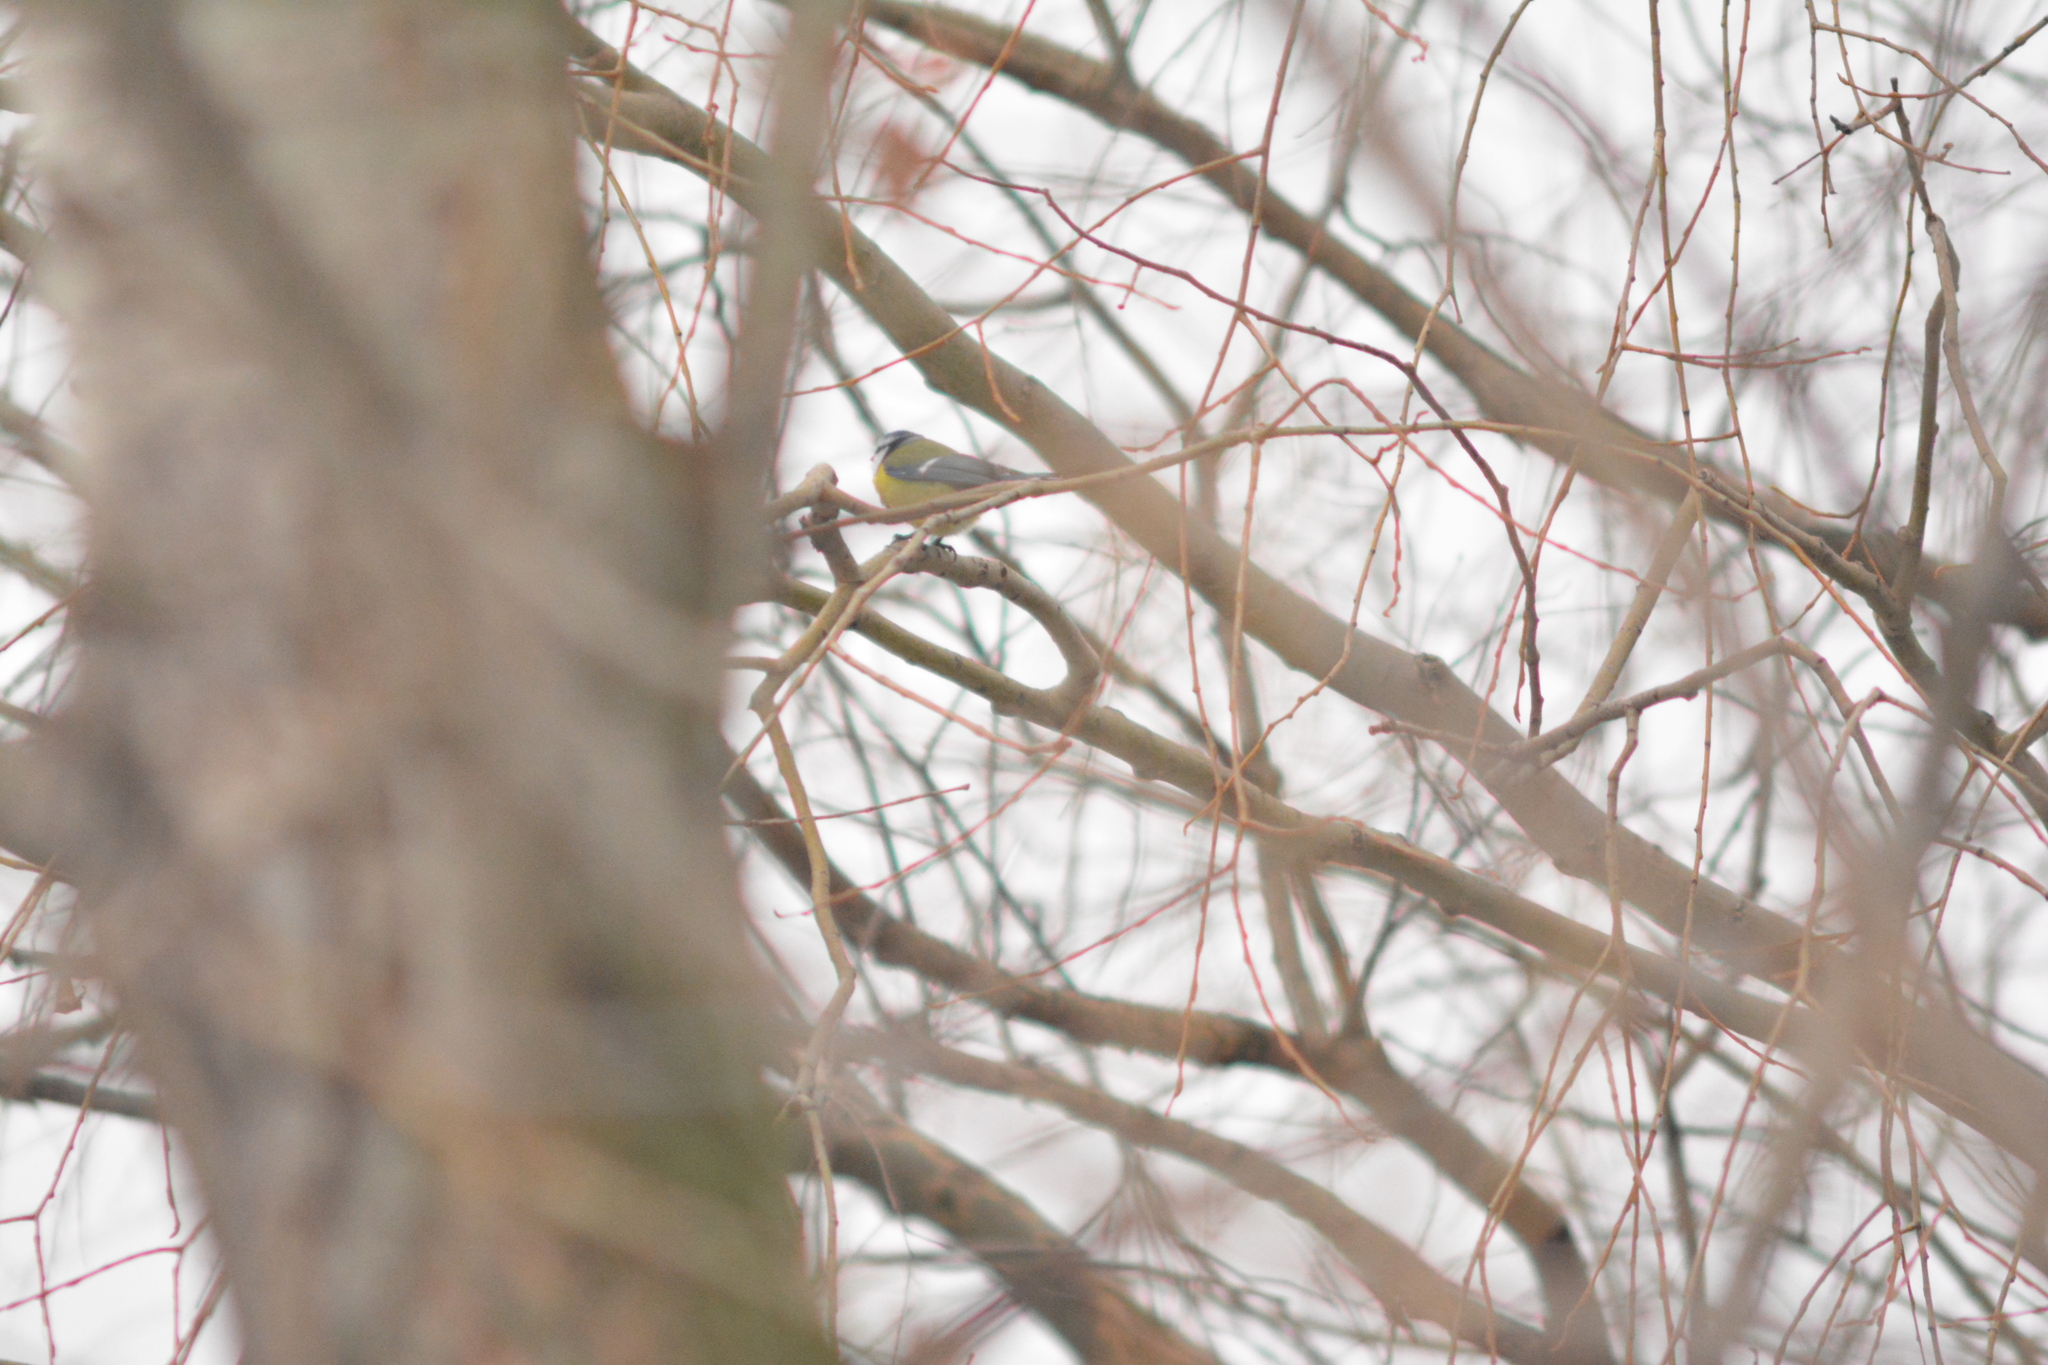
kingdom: Animalia
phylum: Chordata
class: Aves
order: Passeriformes
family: Paridae
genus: Cyanistes
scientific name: Cyanistes caeruleus
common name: Eurasian blue tit
